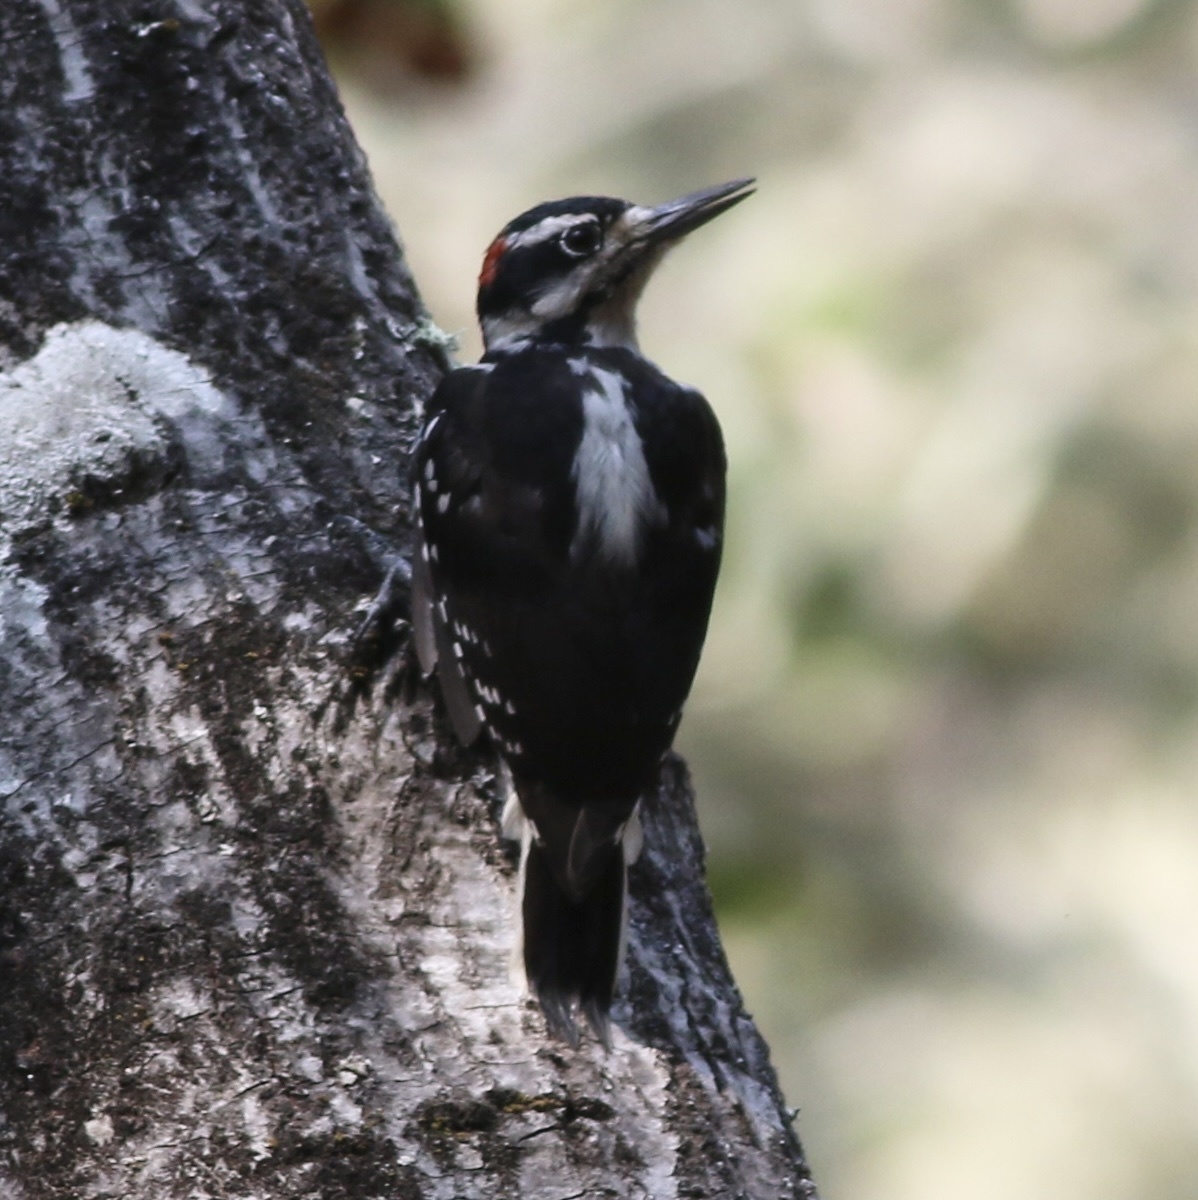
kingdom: Animalia
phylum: Chordata
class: Aves
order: Piciformes
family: Picidae
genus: Leuconotopicus
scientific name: Leuconotopicus villosus
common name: Hairy woodpecker
